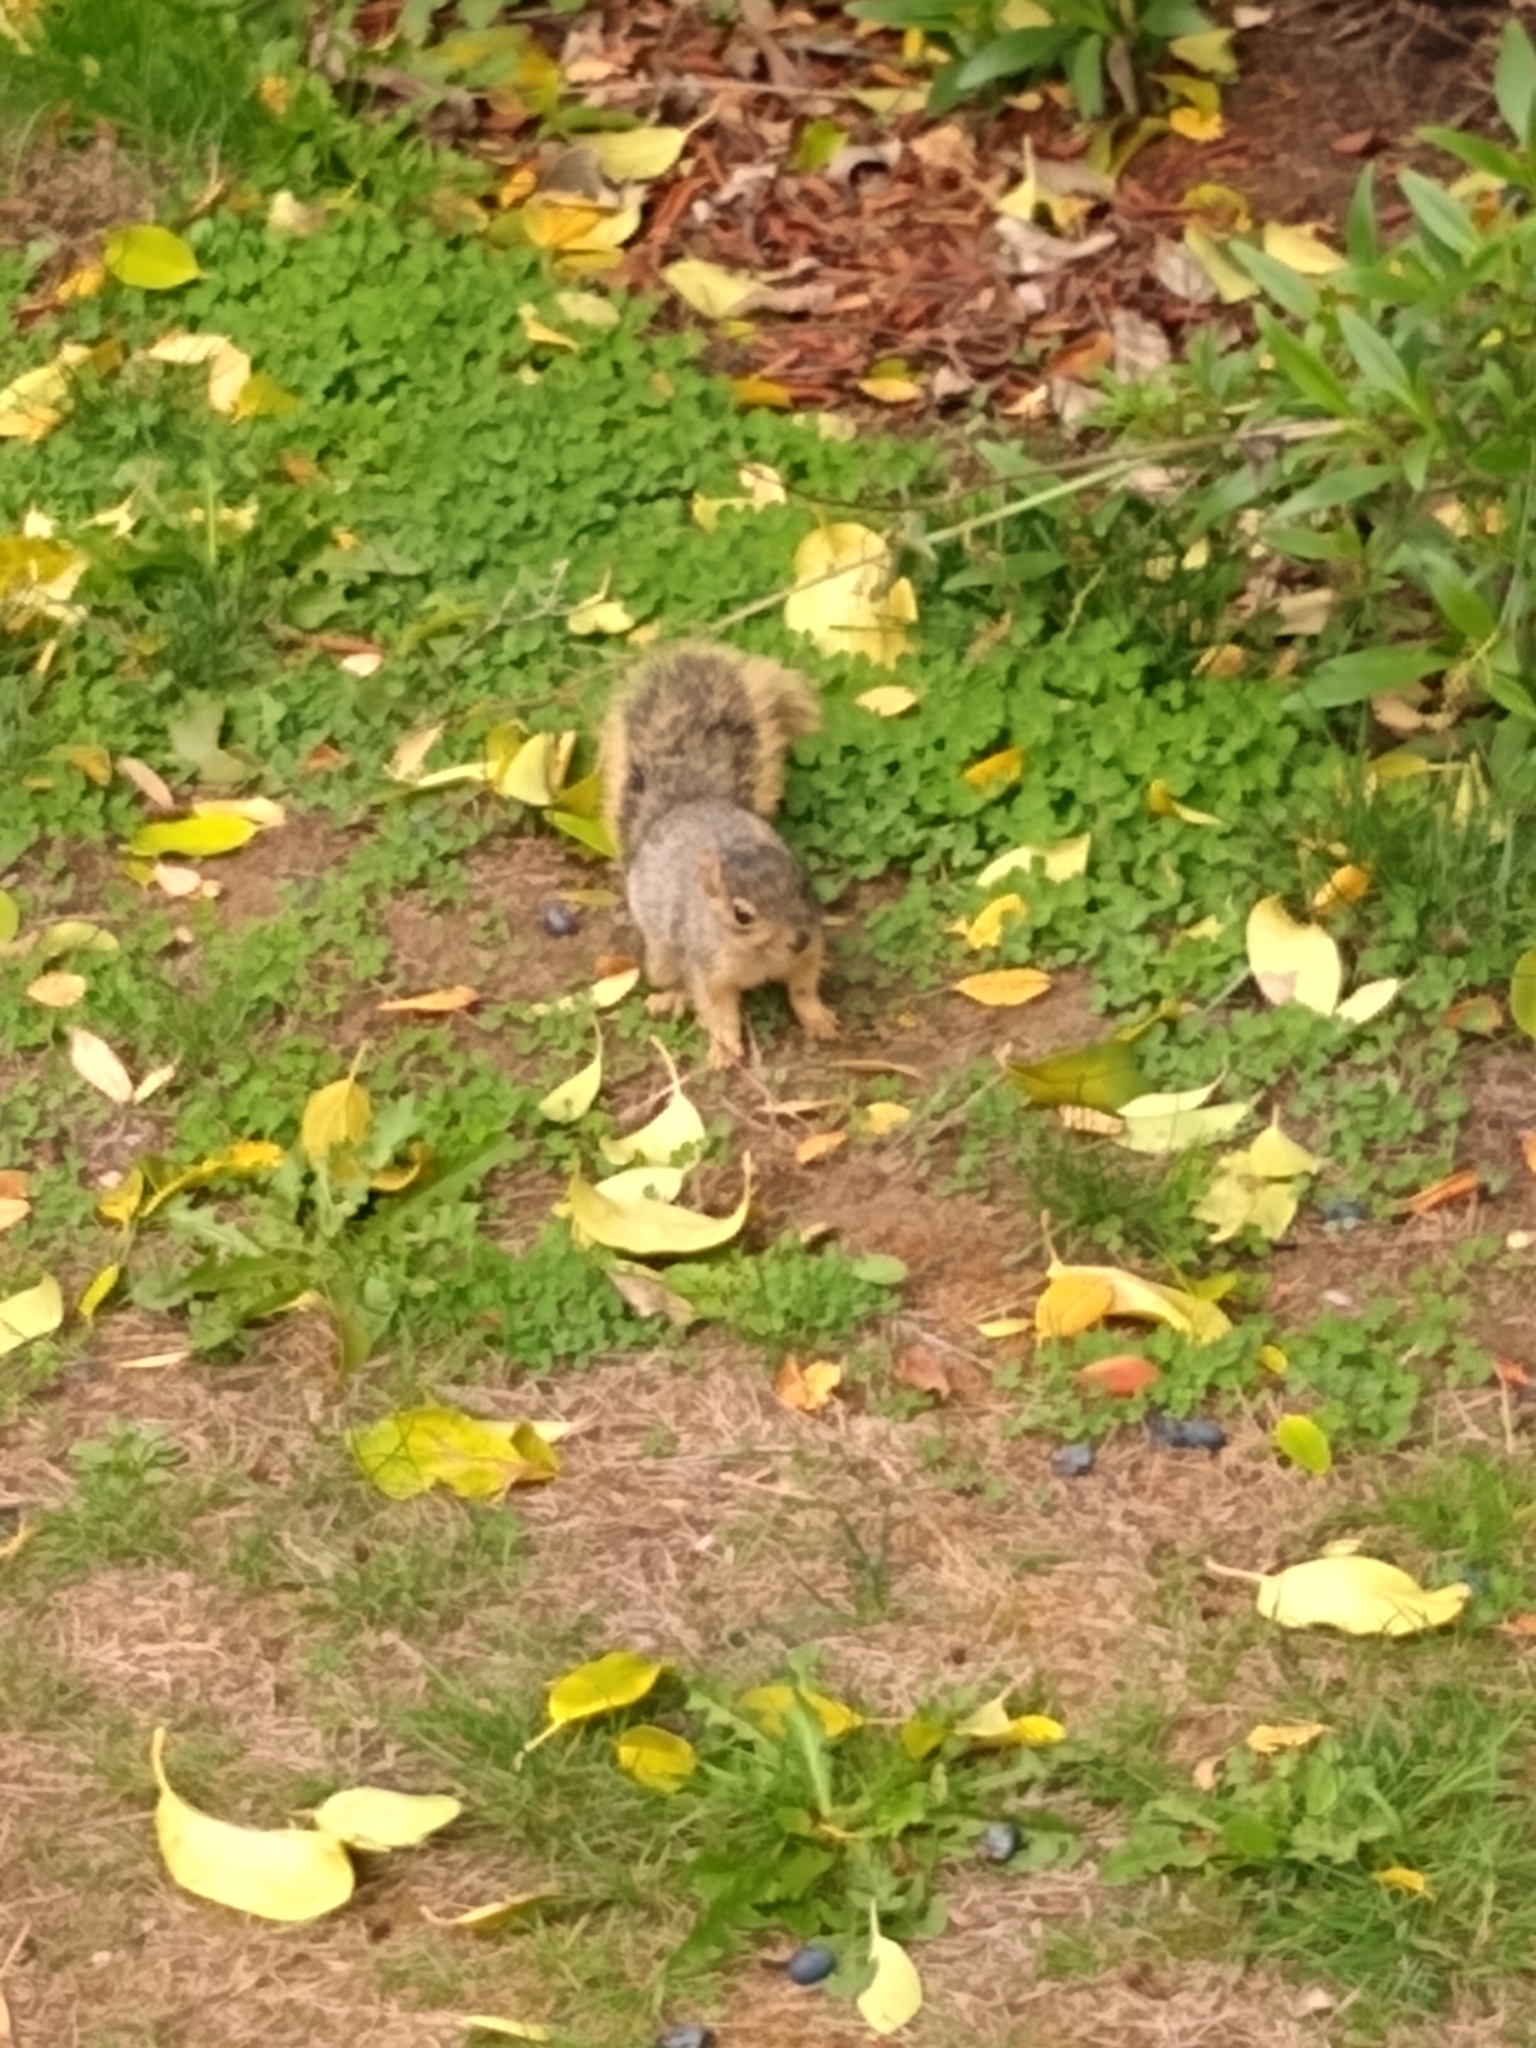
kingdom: Animalia
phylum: Chordata
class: Mammalia
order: Rodentia
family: Sciuridae
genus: Sciurus
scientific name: Sciurus niger
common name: Fox squirrel
